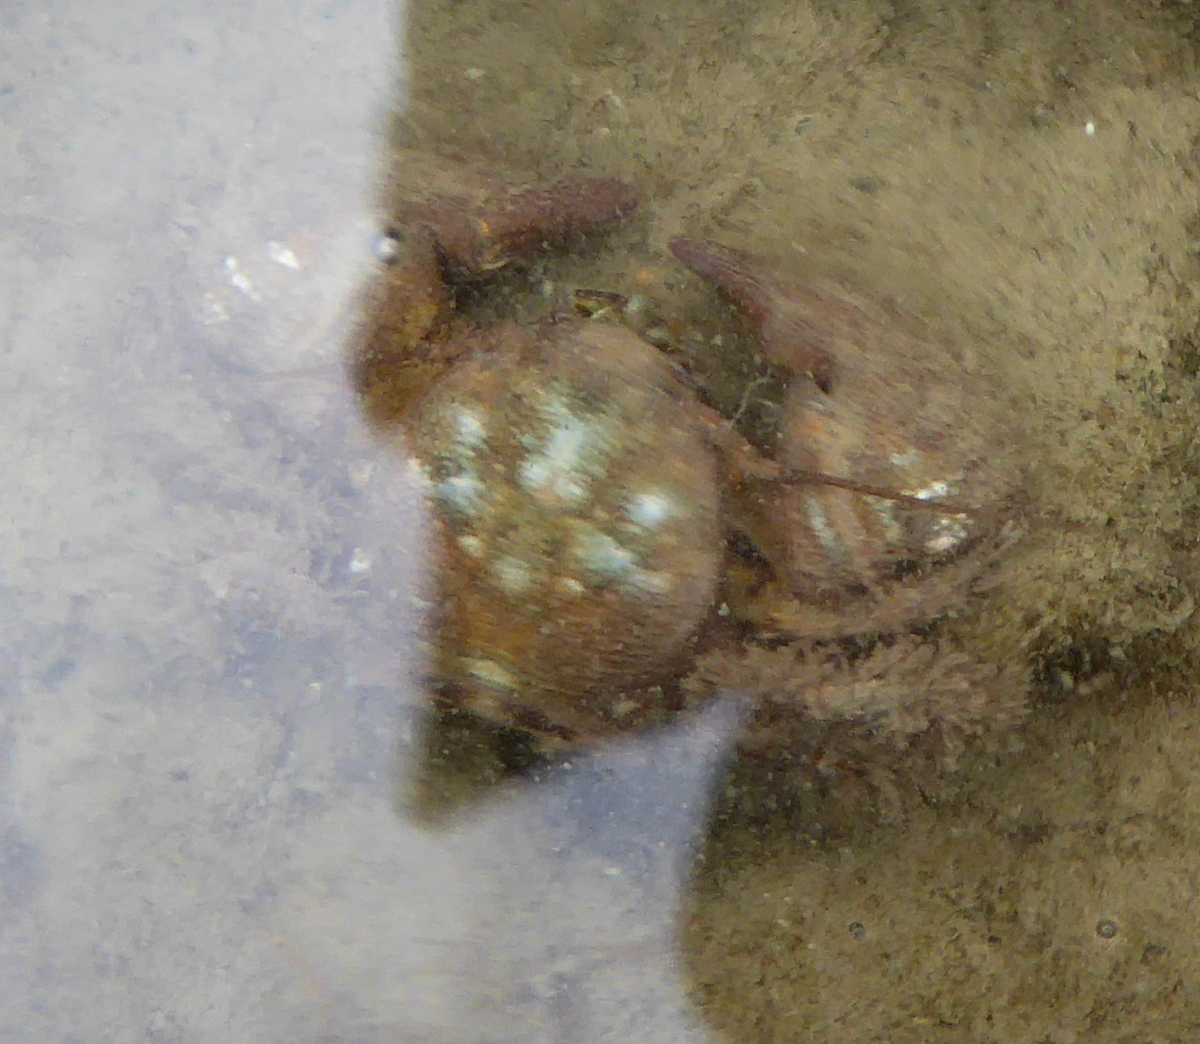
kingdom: Animalia
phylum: Arthropoda
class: Malacostraca
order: Decapoda
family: Porcellanidae
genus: Pachycheles
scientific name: Pachycheles rudis
